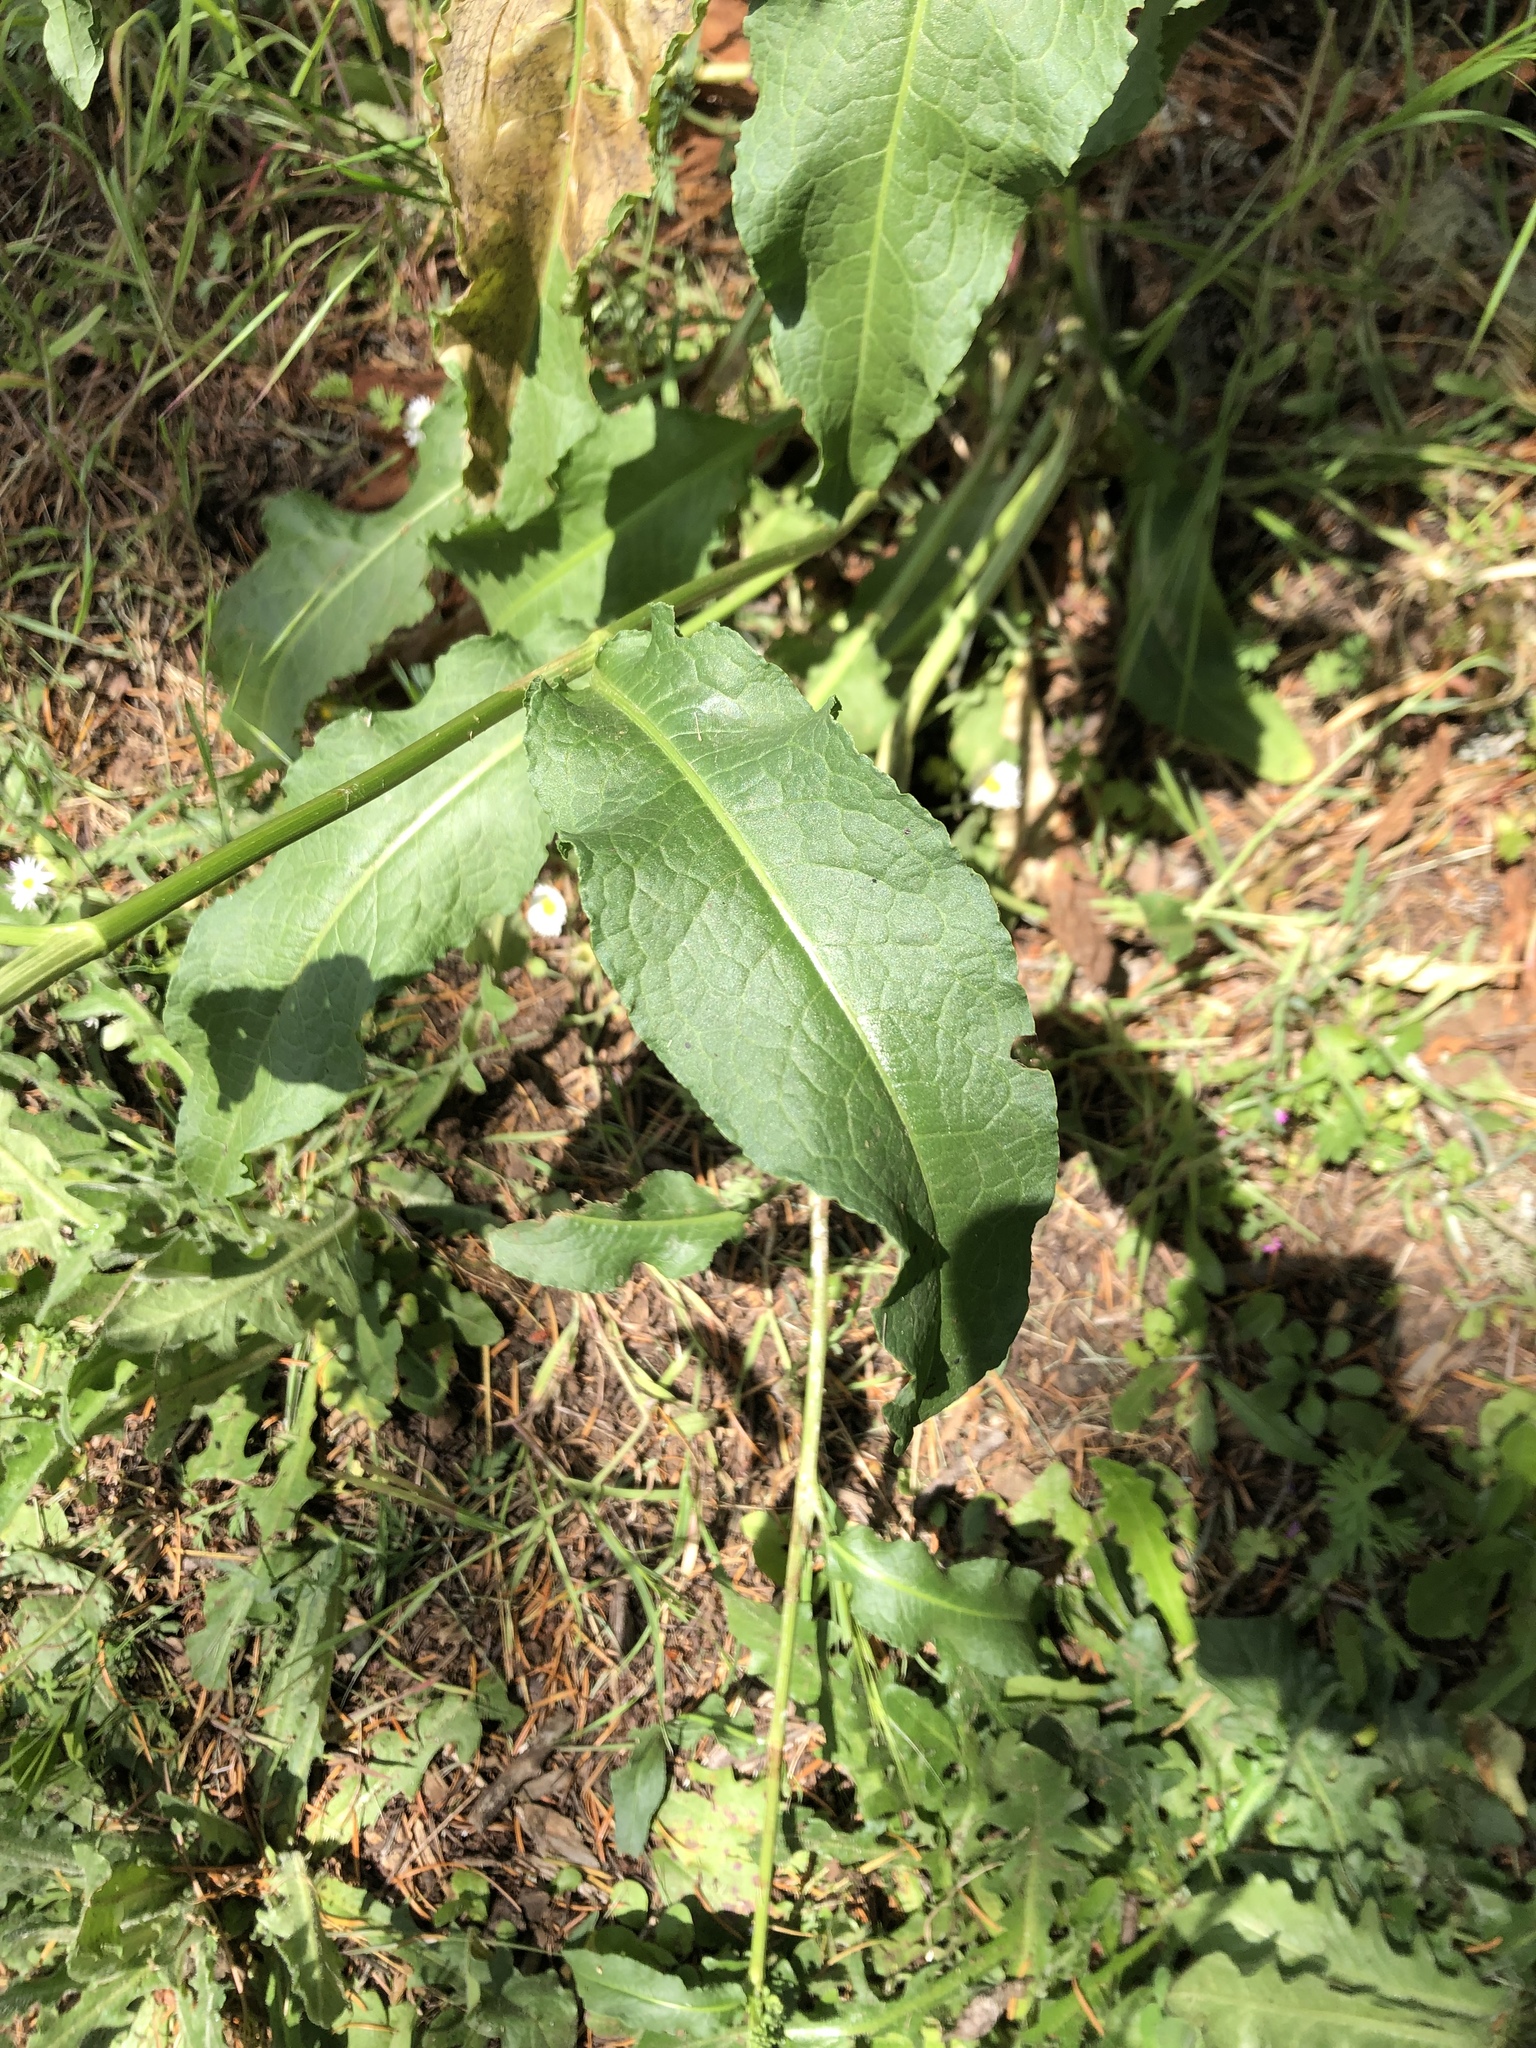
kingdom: Plantae
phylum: Tracheophyta
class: Magnoliopsida
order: Caryophyllales
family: Polygonaceae
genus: Rumex
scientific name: Rumex crispus
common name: Curled dock
